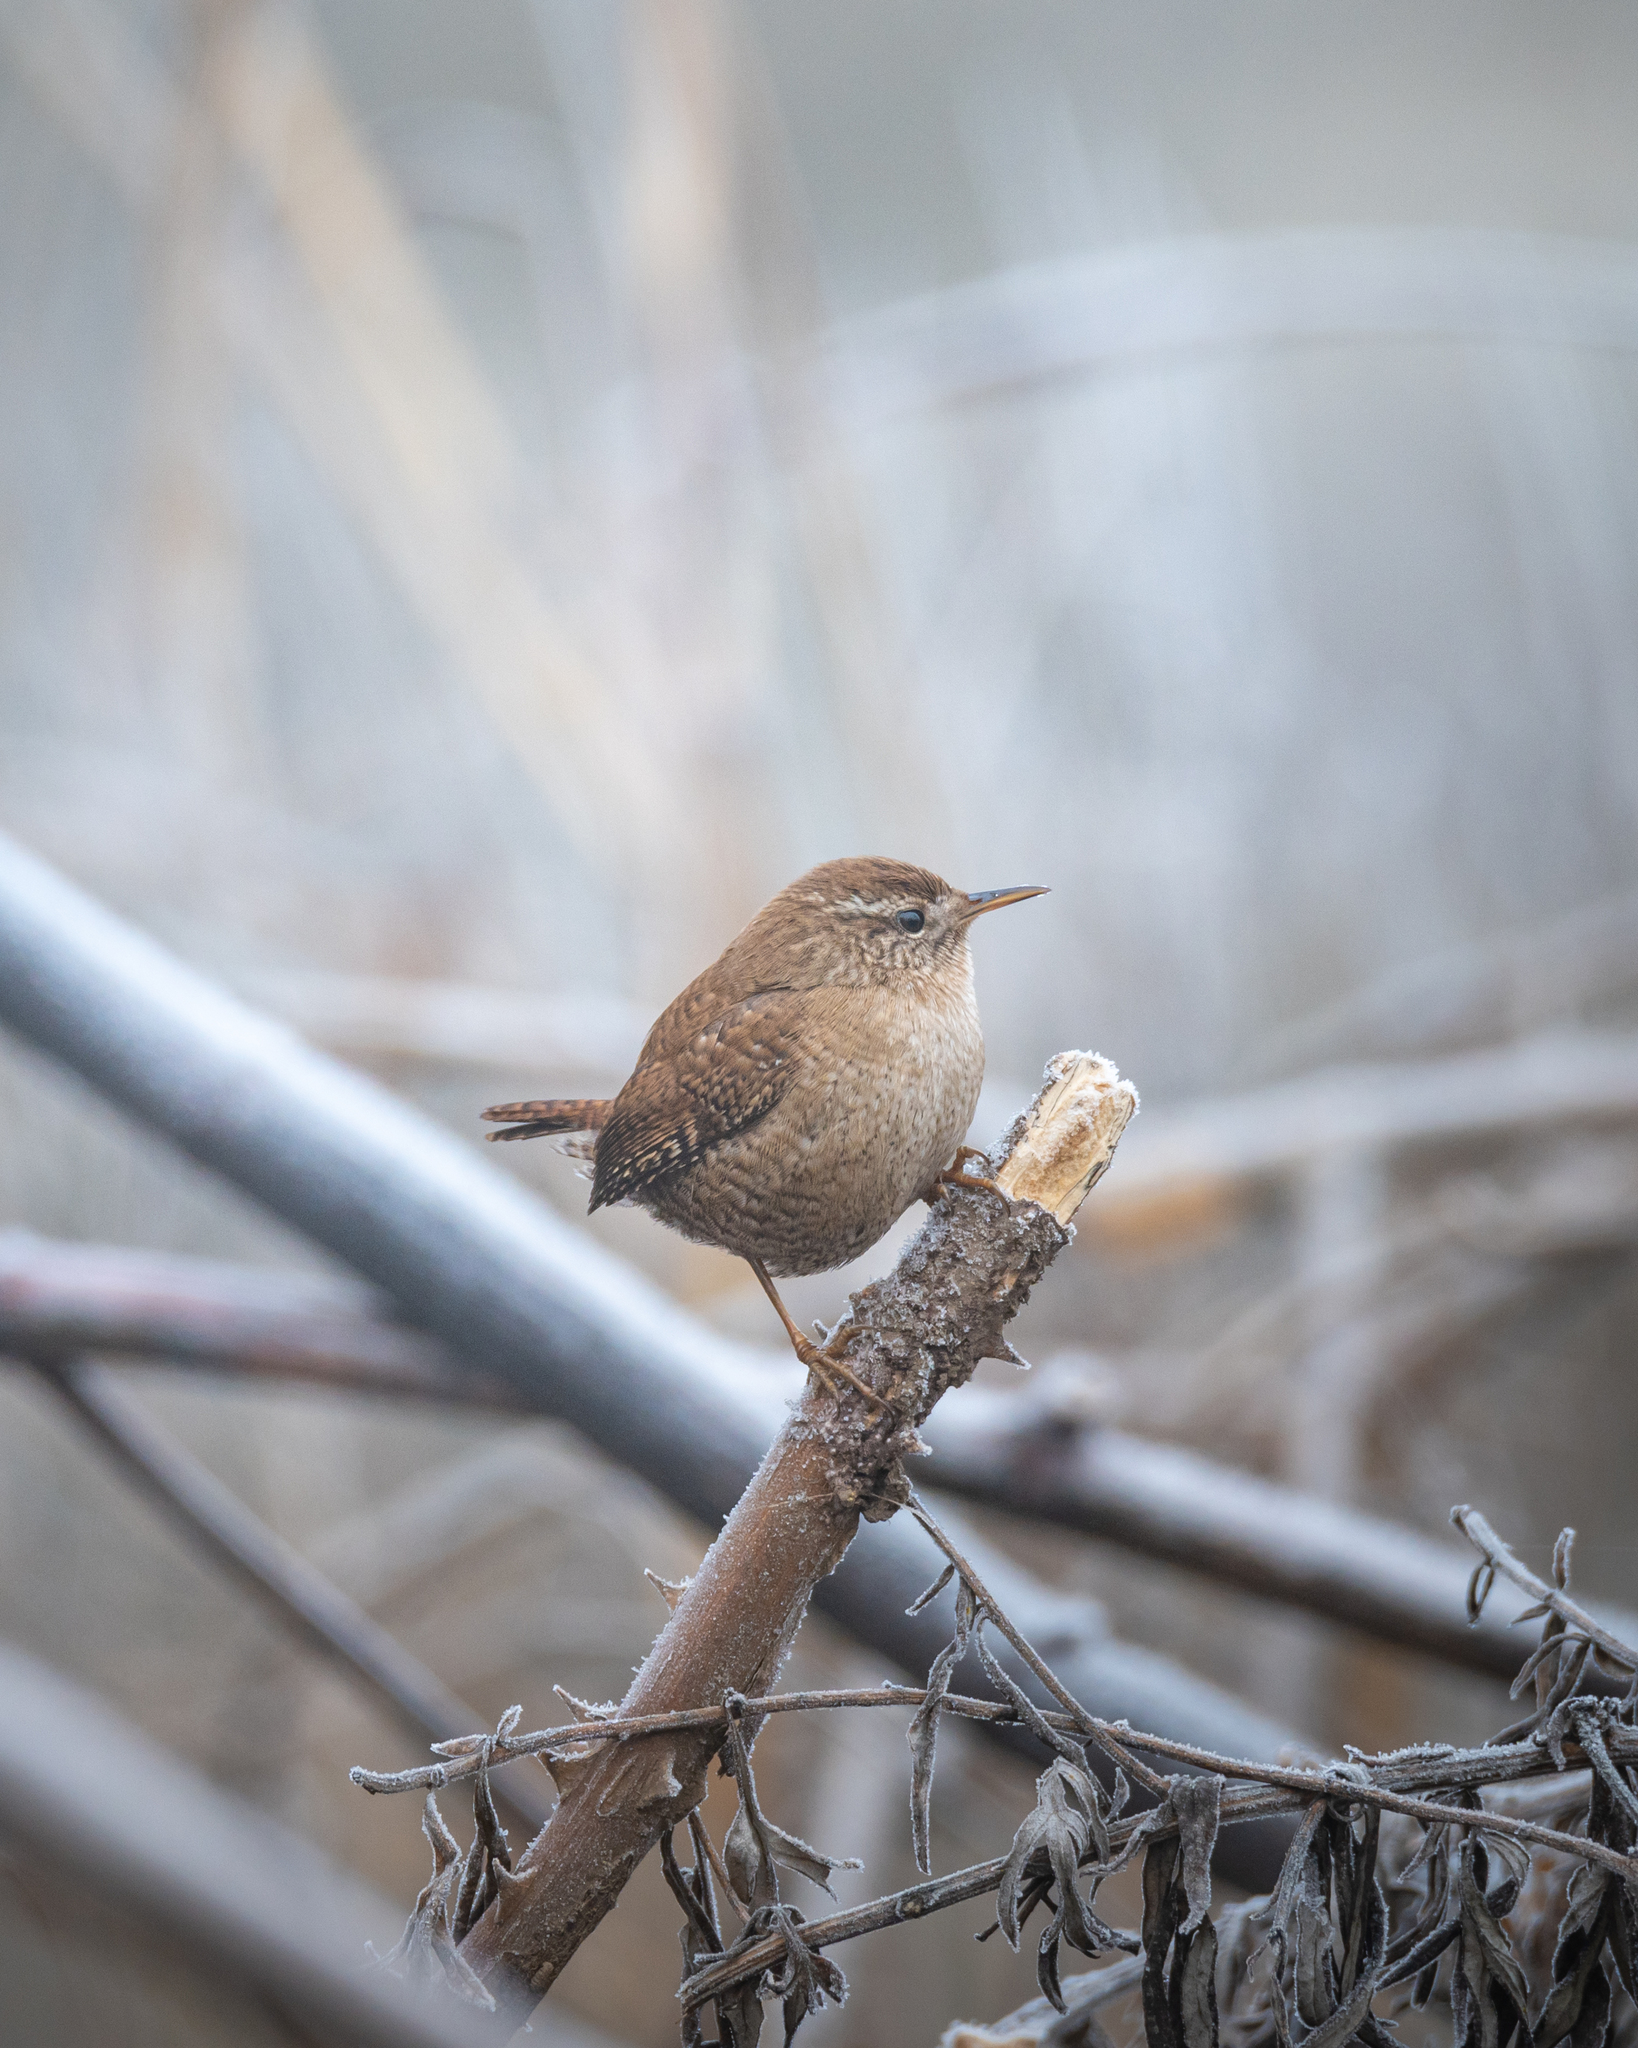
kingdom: Animalia
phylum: Chordata
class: Aves
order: Passeriformes
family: Troglodytidae
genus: Troglodytes
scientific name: Troglodytes troglodytes
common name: Eurasian wren
